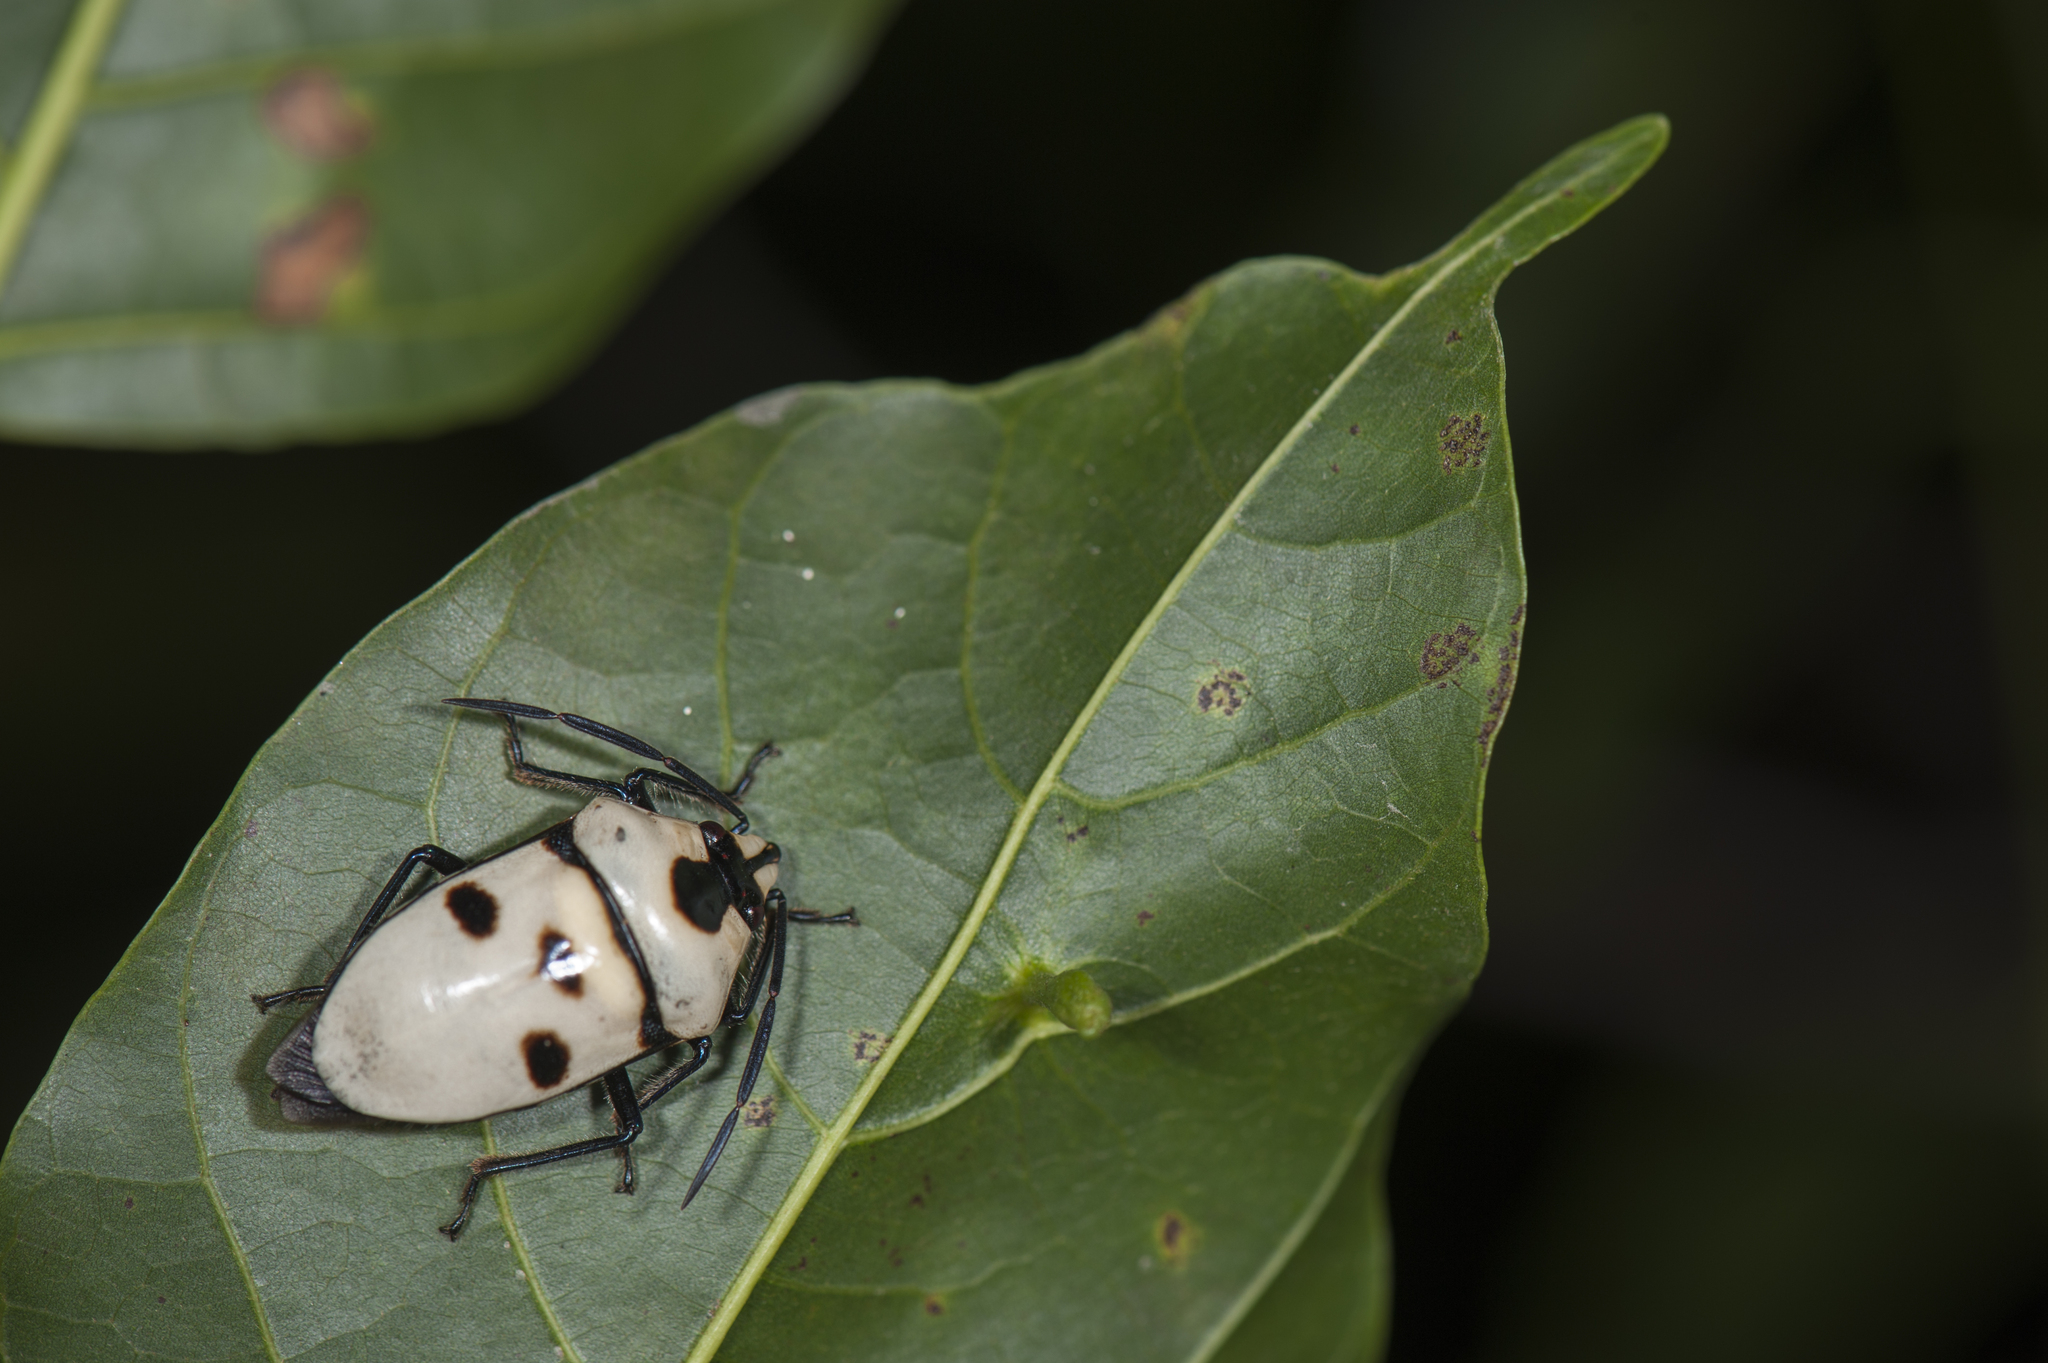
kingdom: Animalia
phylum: Arthropoda
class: Insecta
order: Hemiptera
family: Scutelleridae
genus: Eucorysses
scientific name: Eucorysses grandis
